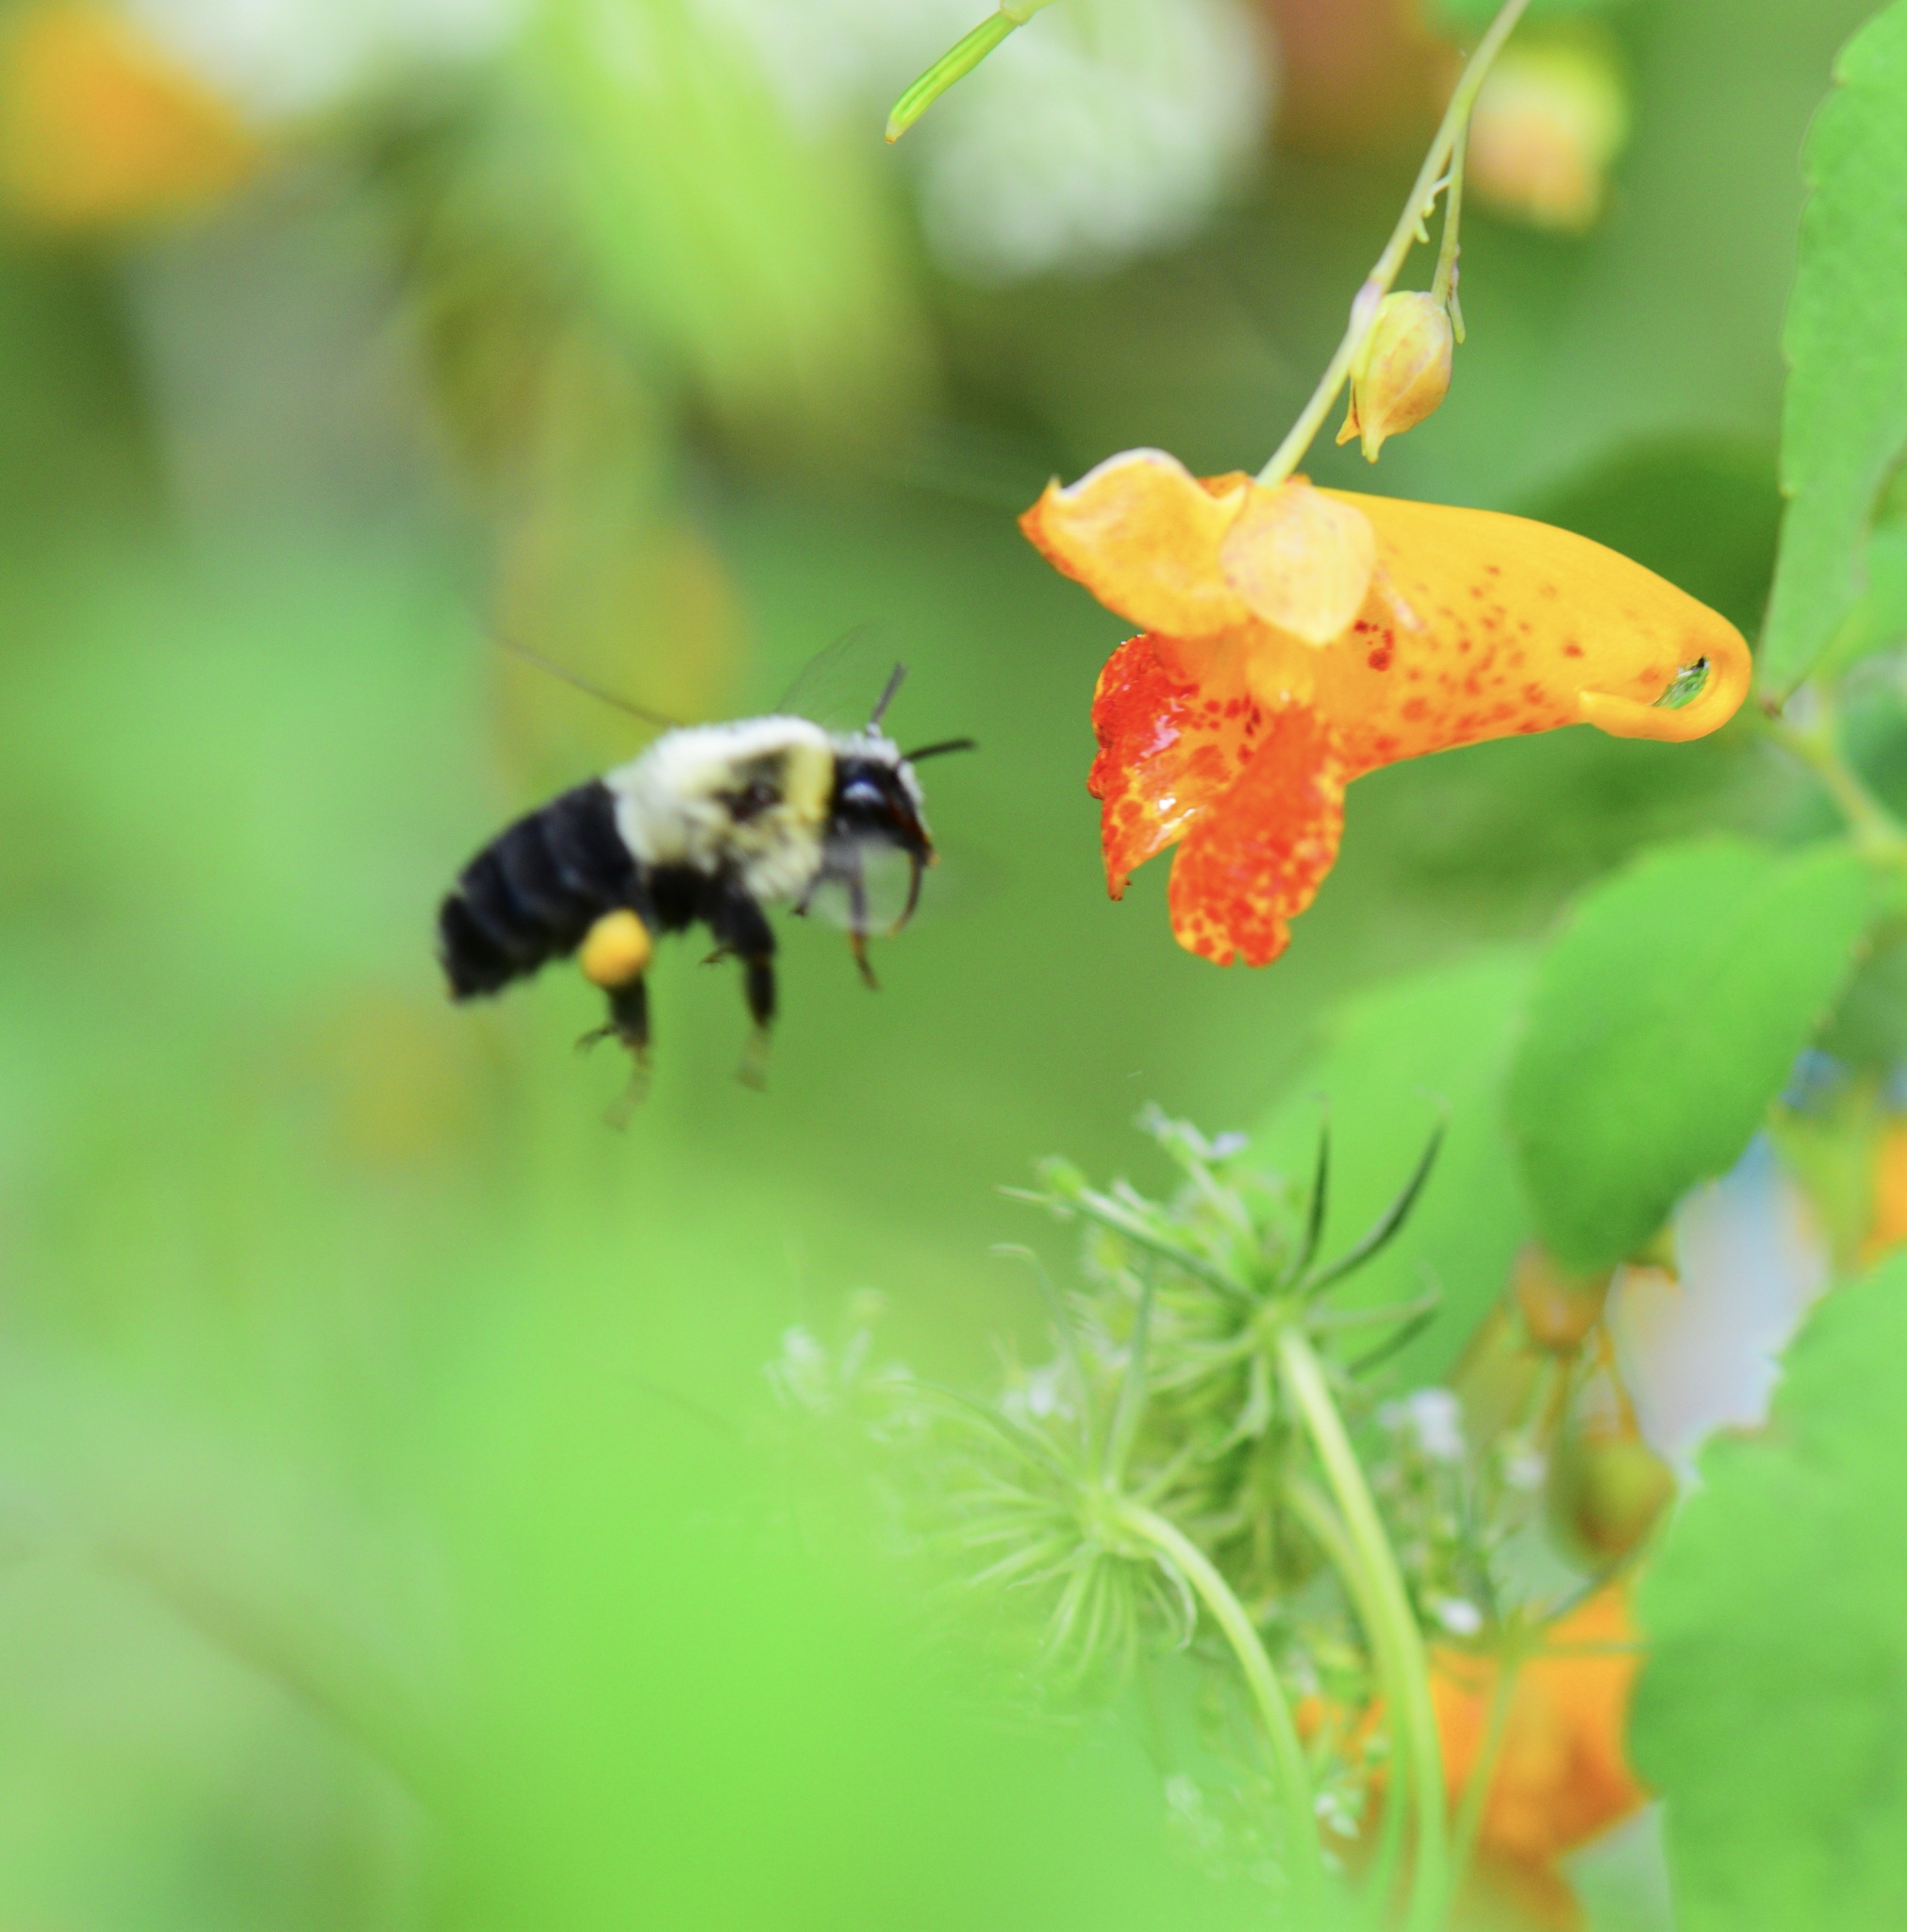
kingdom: Animalia
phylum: Arthropoda
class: Insecta
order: Hymenoptera
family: Apidae
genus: Bombus
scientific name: Bombus impatiens
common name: Common eastern bumble bee
